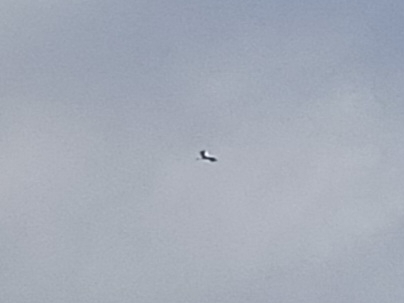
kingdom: Animalia
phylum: Chordata
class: Aves
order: Ciconiiformes
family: Ciconiidae
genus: Ciconia
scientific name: Ciconia ciconia
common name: White stork
